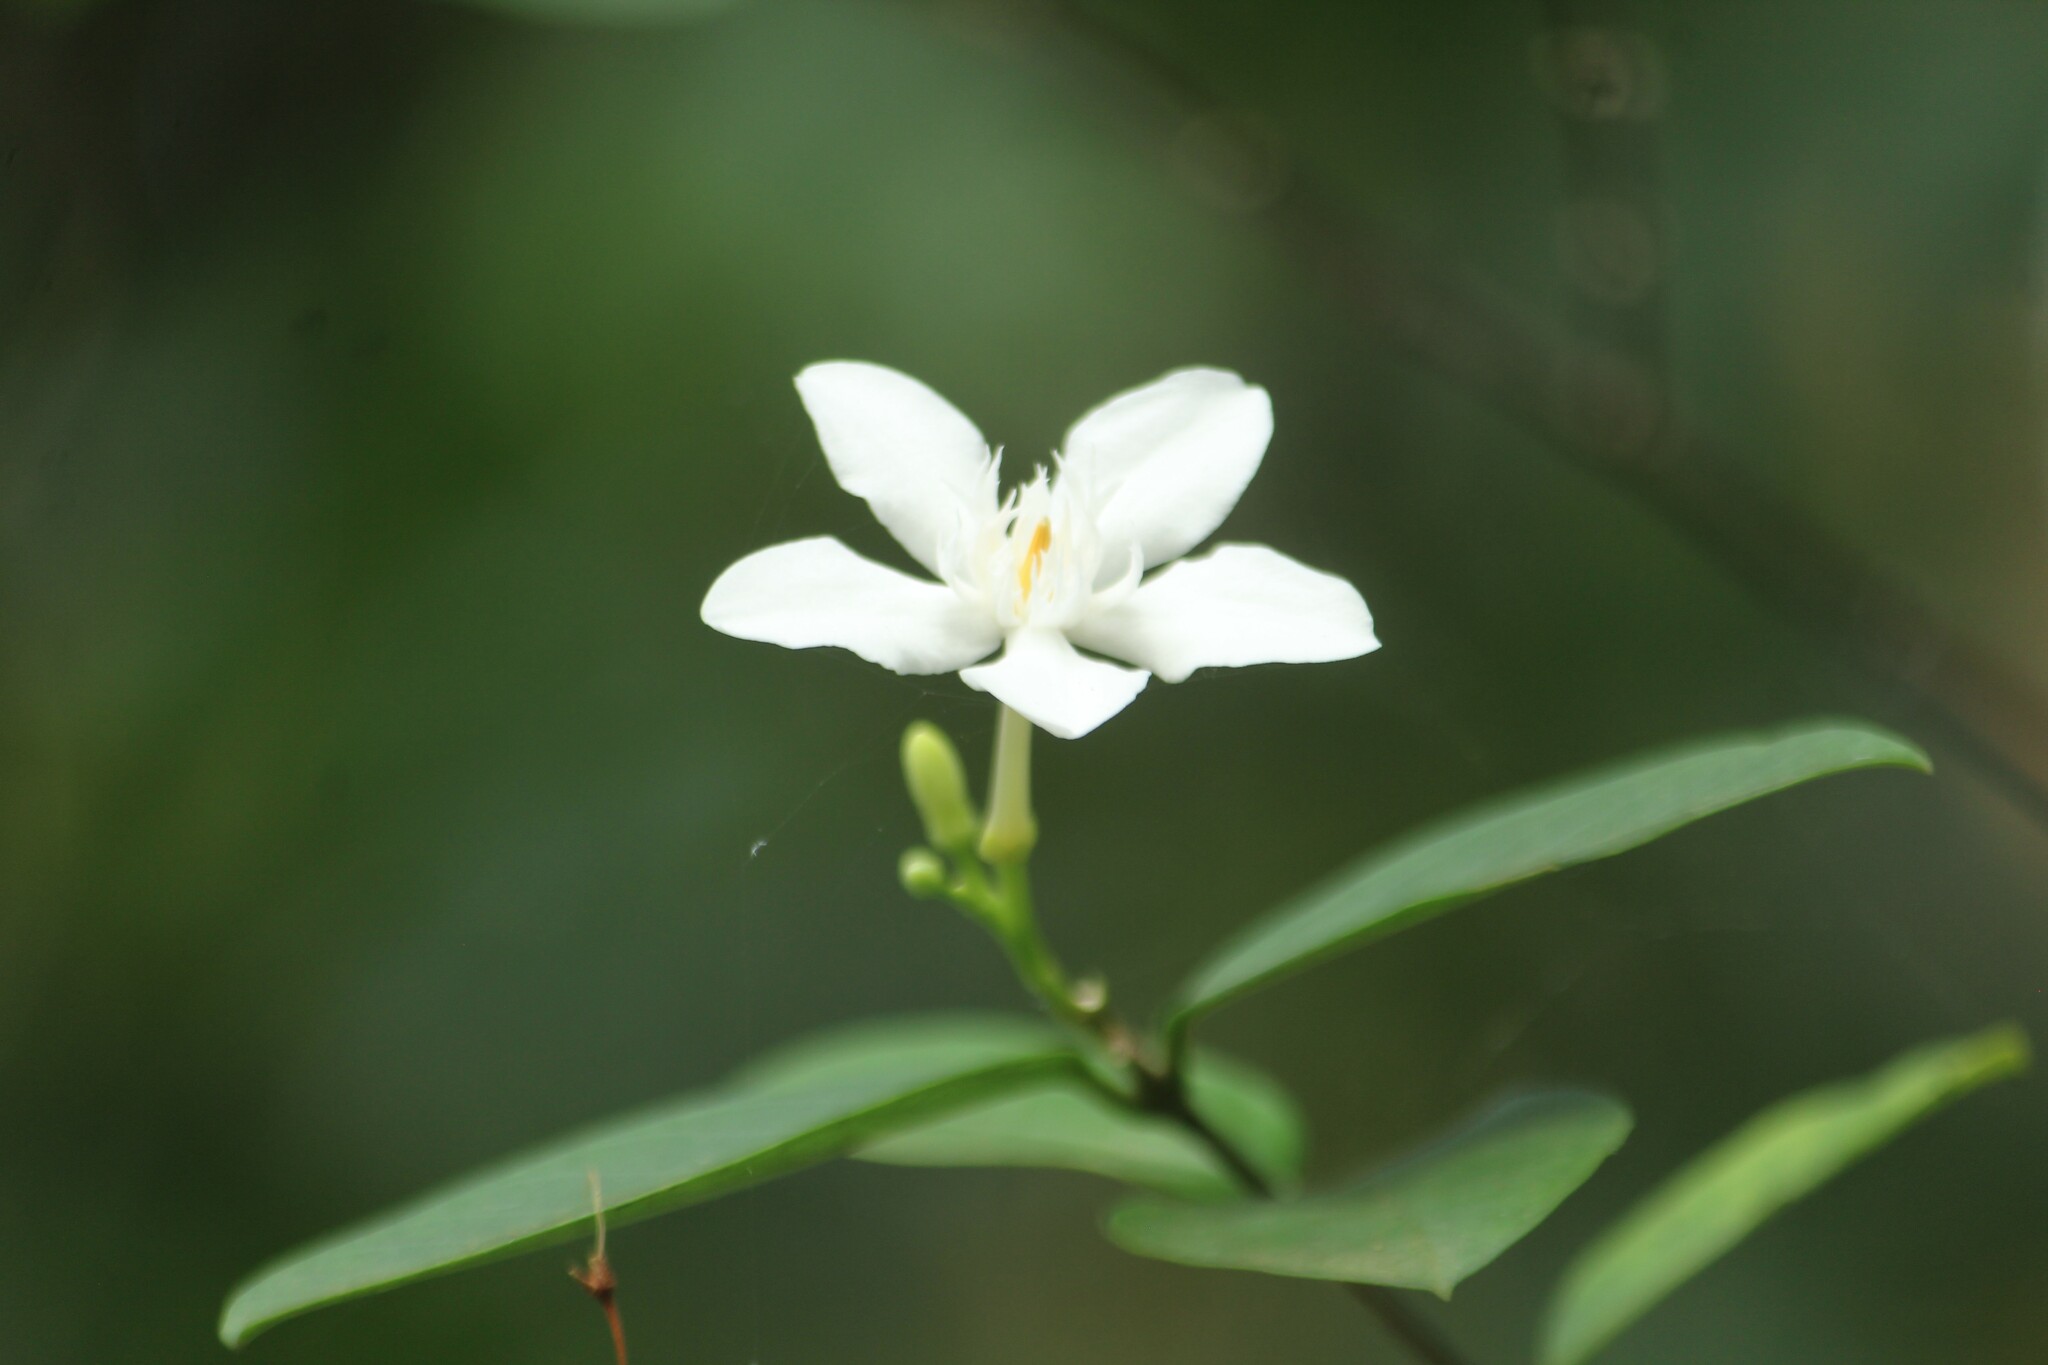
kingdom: Plantae
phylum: Tracheophyta
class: Magnoliopsida
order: Gentianales
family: Apocynaceae
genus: Wrightia
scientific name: Wrightia antidysenterica
